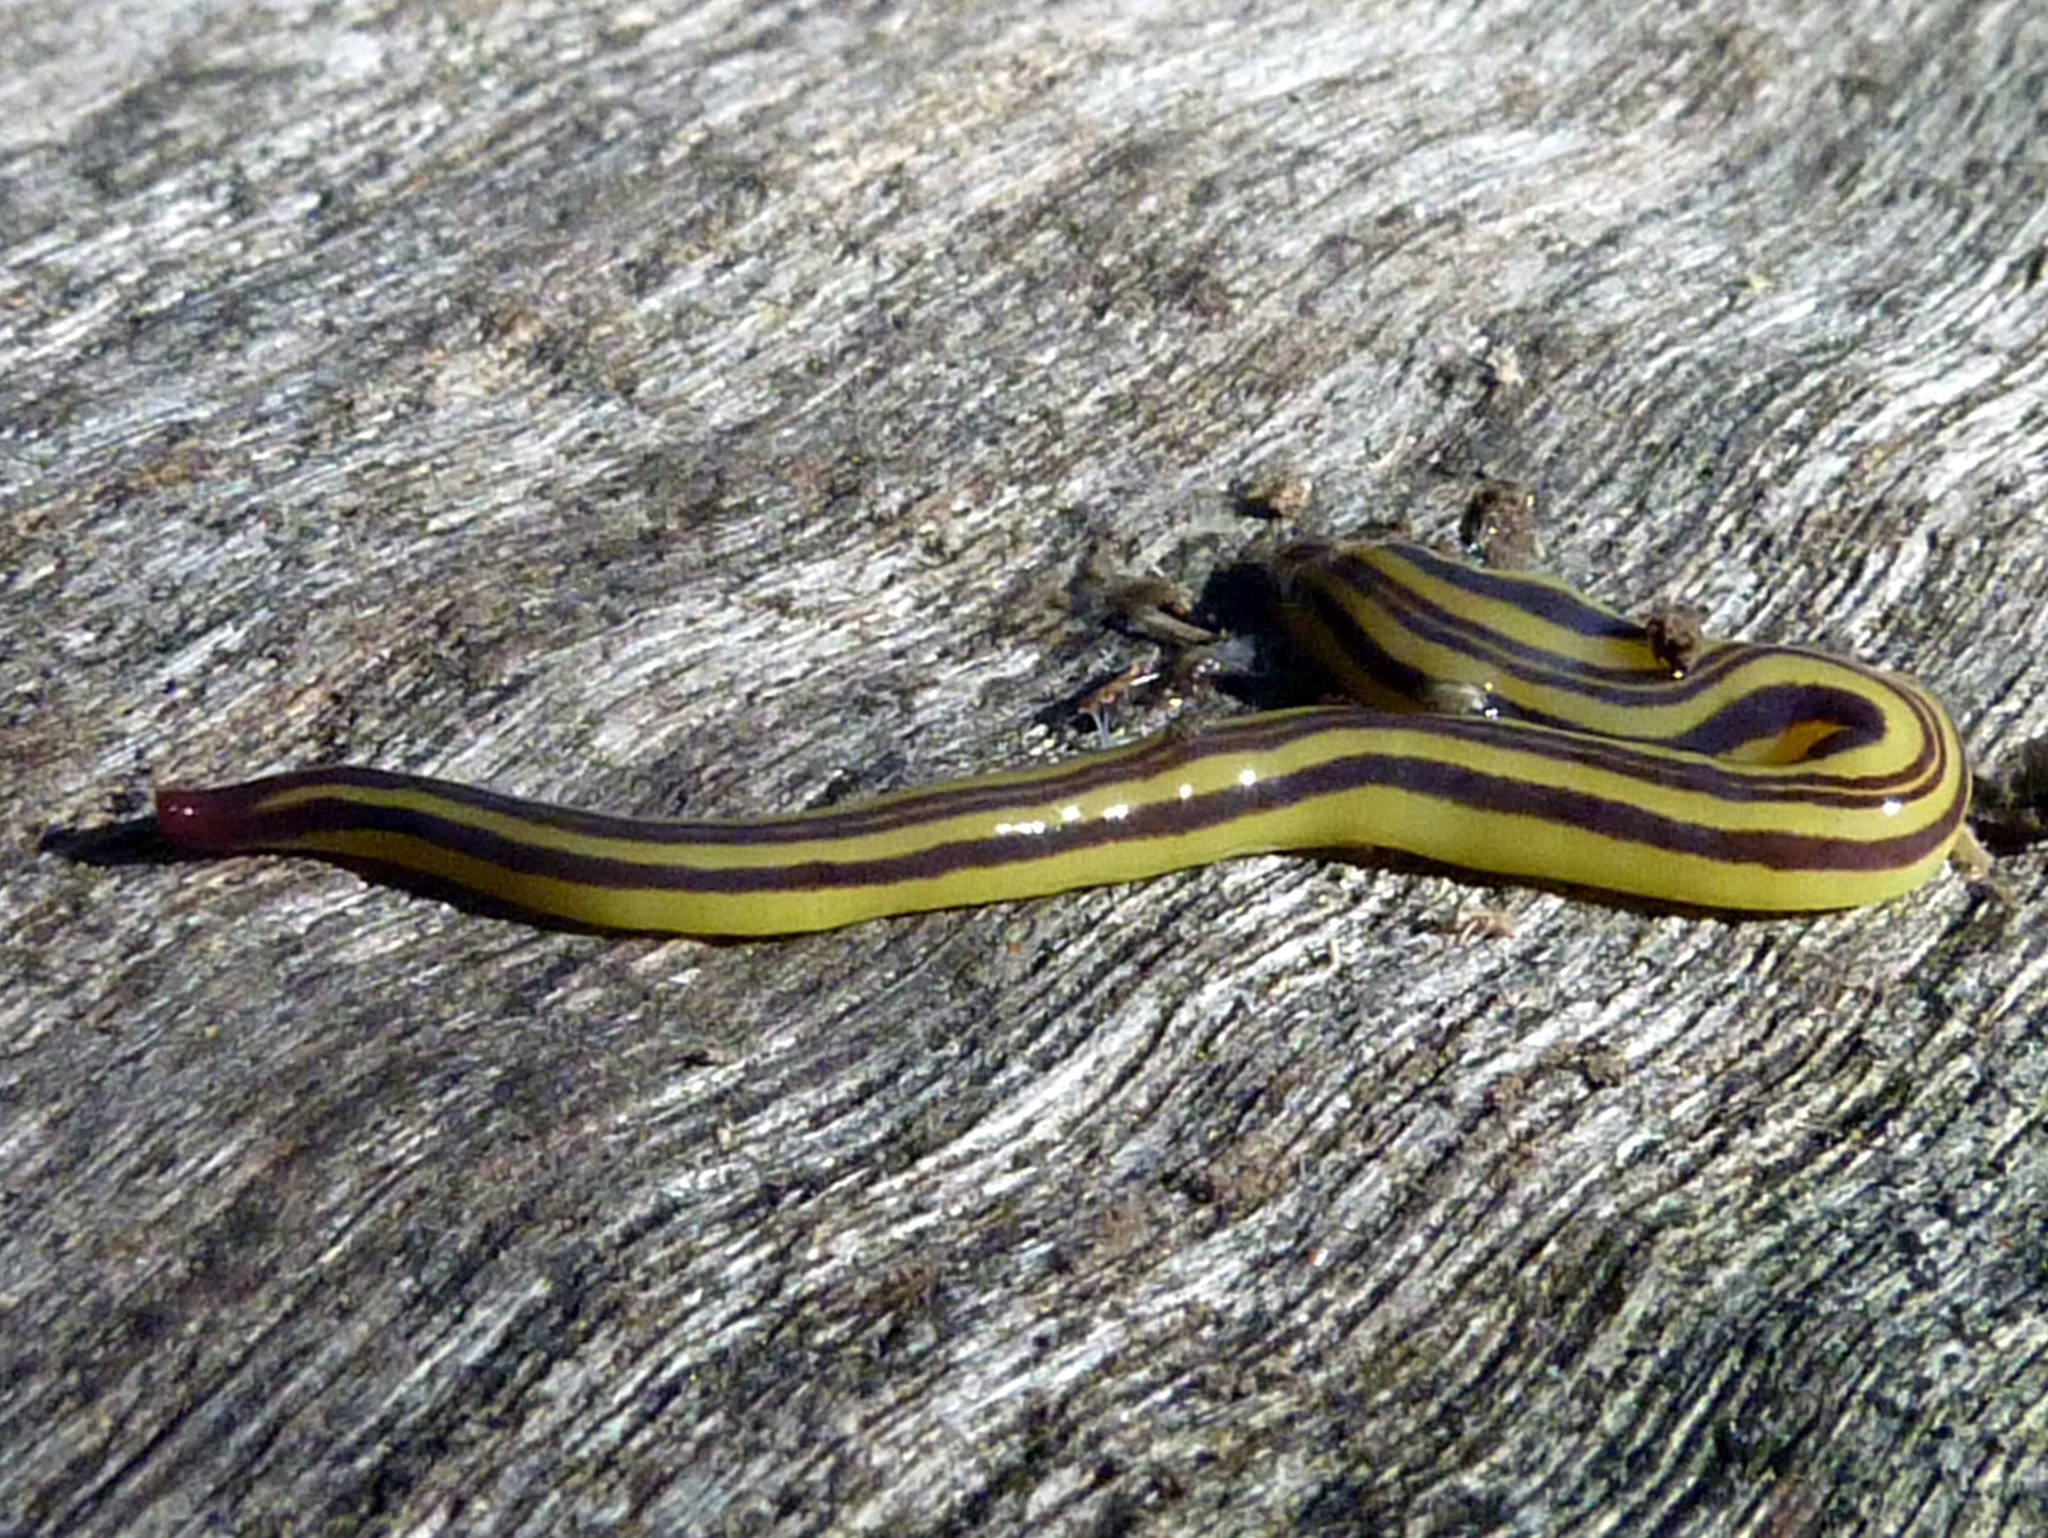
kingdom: Animalia
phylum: Platyhelminthes
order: Tricladida
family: Geoplanidae
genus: Caenoplana
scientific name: Caenoplana sulphurea
